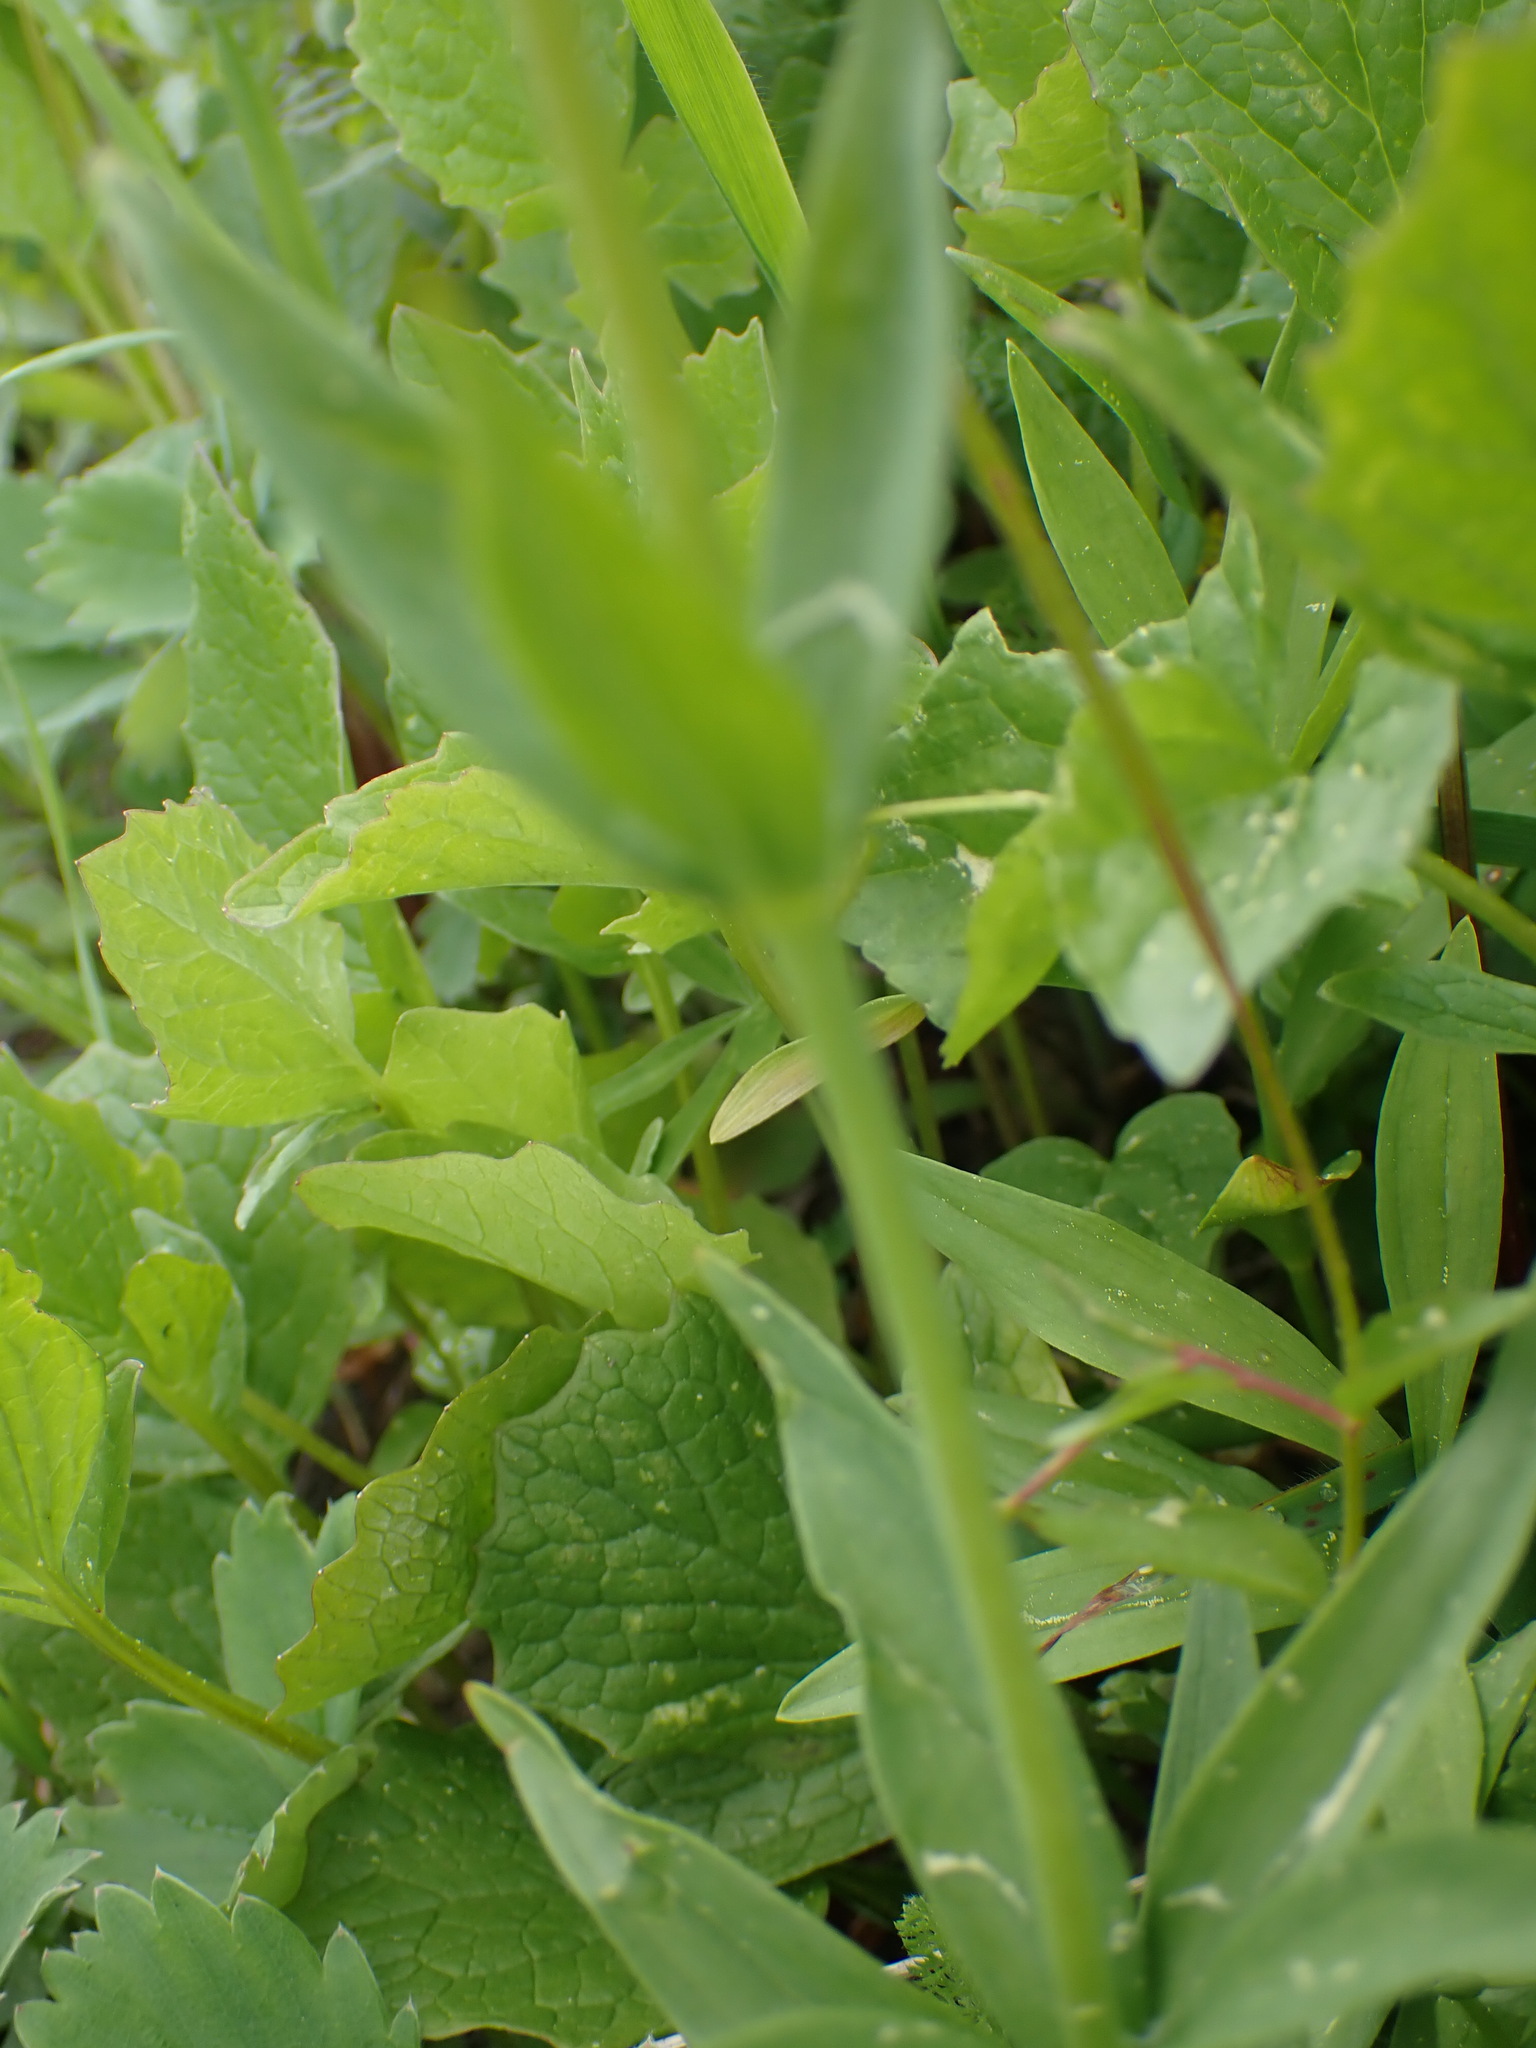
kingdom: Plantae
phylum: Tracheophyta
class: Liliopsida
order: Liliales
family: Liliaceae
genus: Lilium
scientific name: Lilium columbianum
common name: Columbia lily
